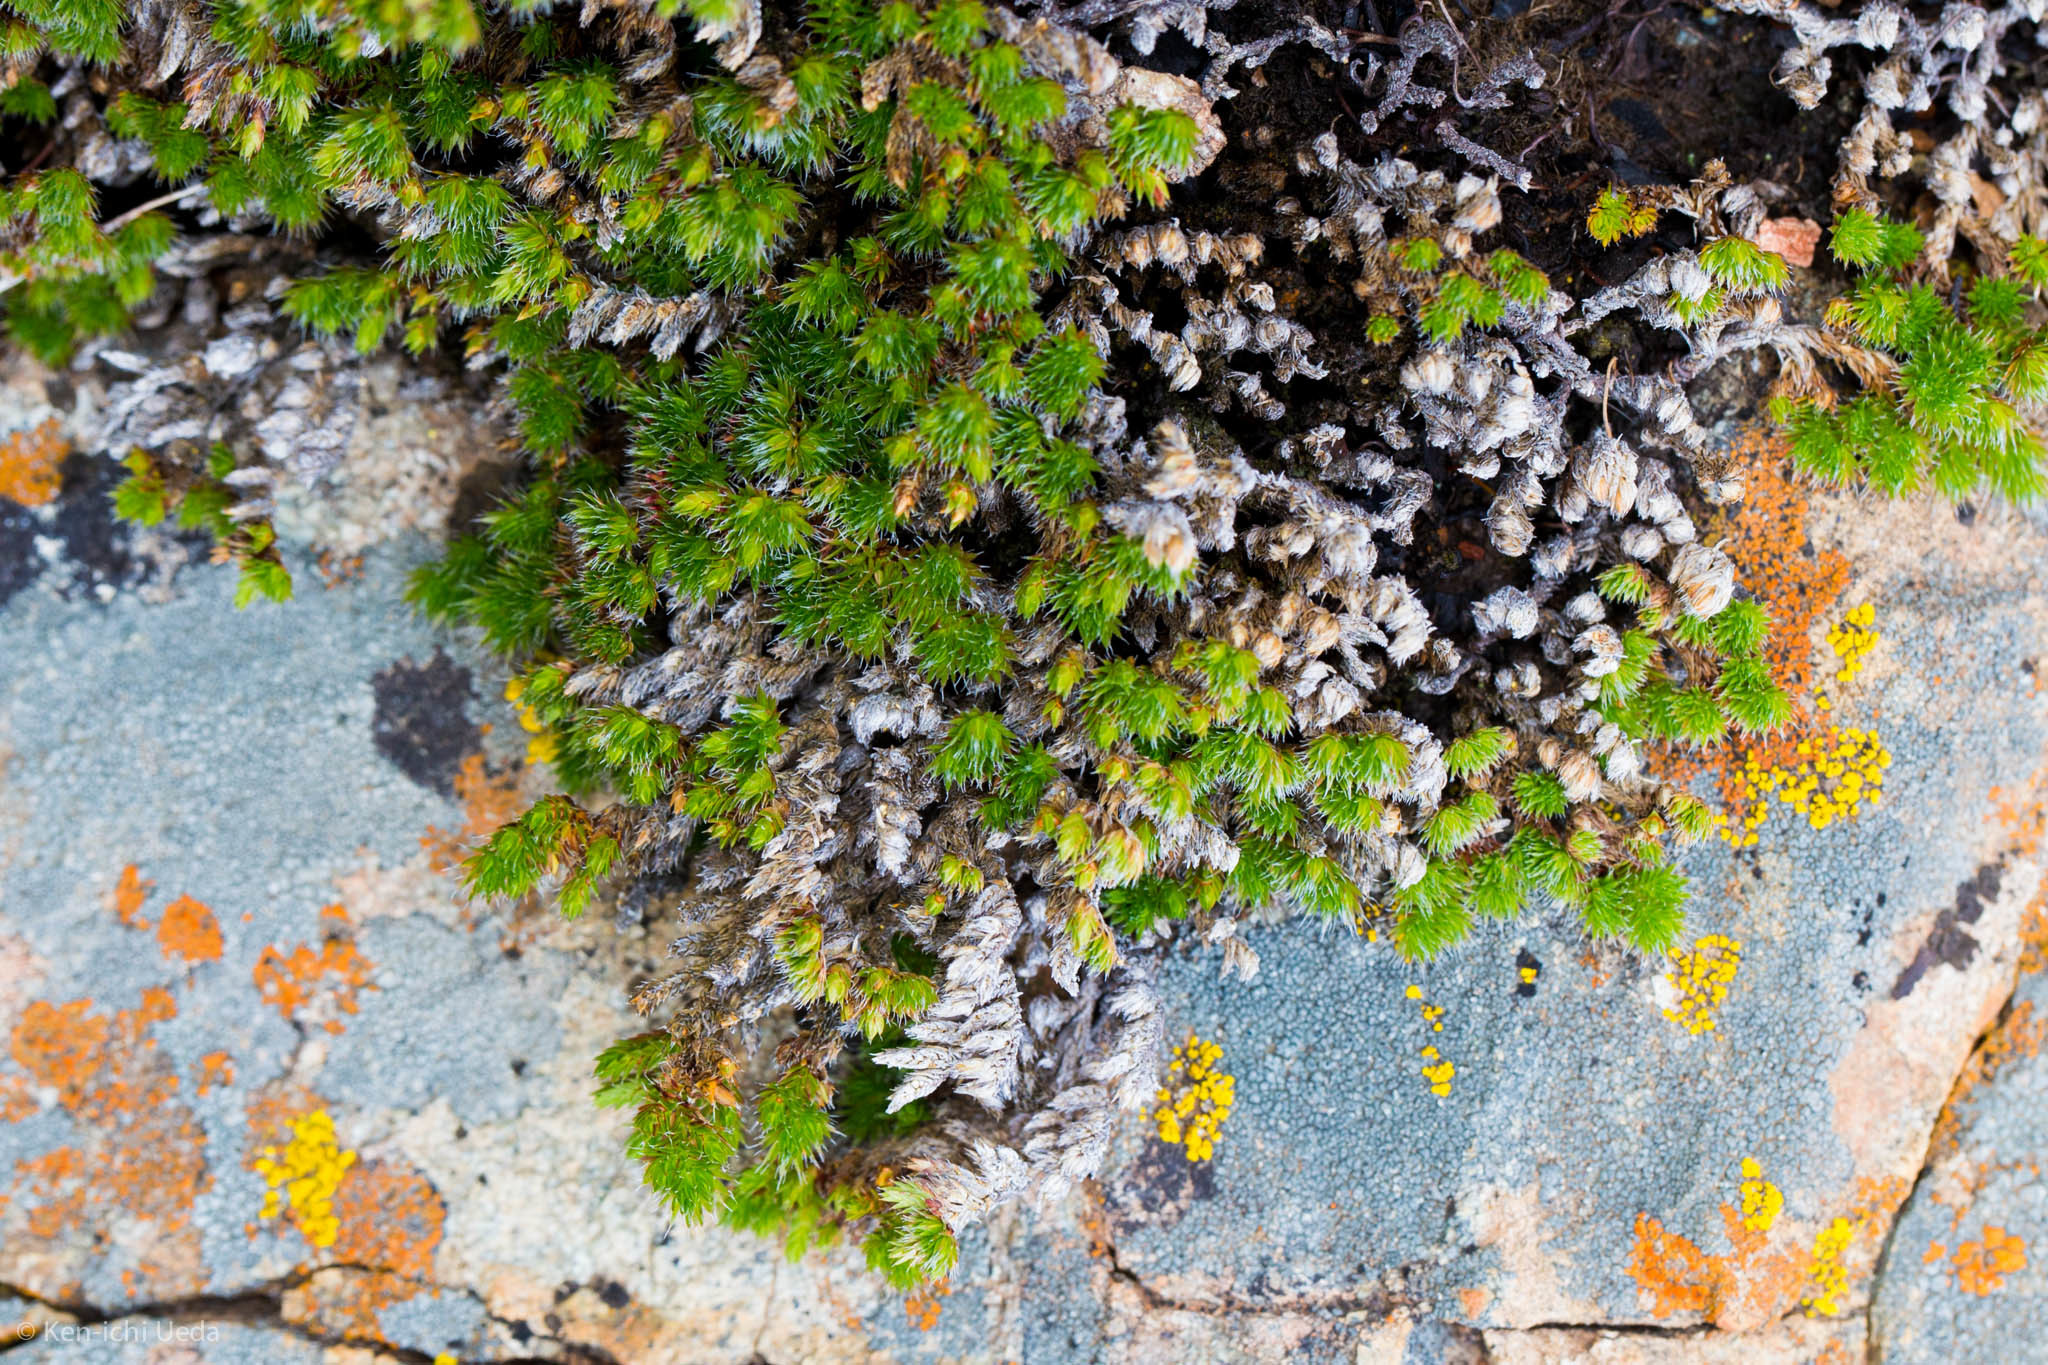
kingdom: Plantae
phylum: Tracheophyta
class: Lycopodiopsida
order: Selaginellales
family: Selaginellaceae
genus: Selaginella
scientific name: Selaginella hansenii
